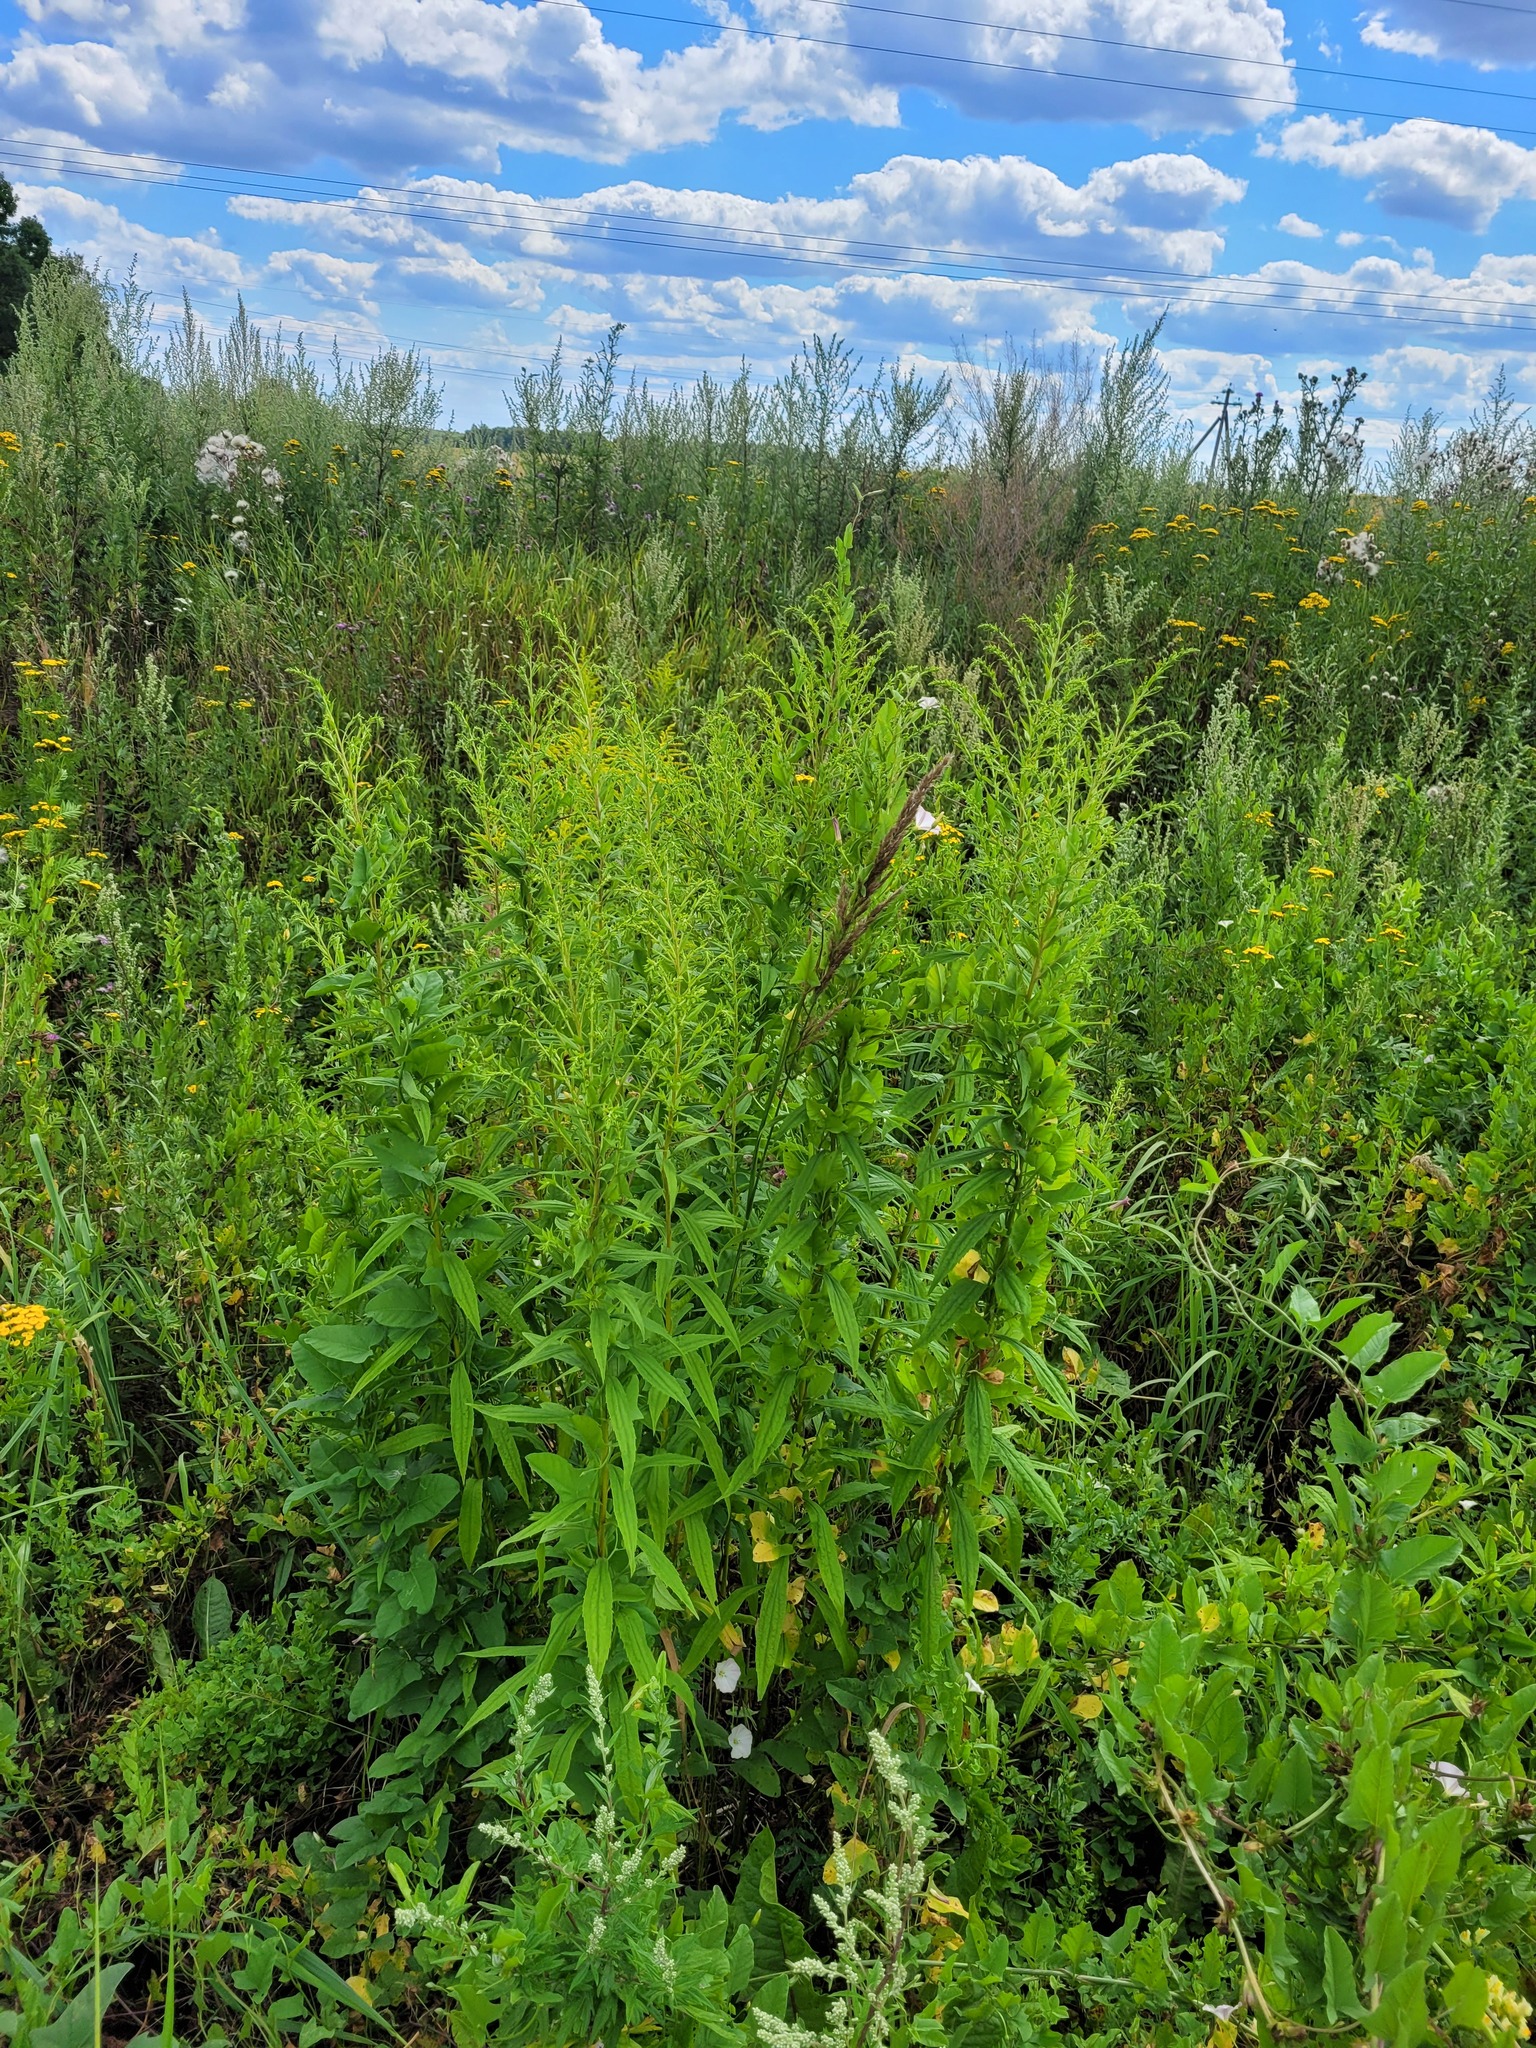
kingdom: Plantae
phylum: Tracheophyta
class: Magnoliopsida
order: Asterales
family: Asteraceae
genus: Solidago
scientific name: Solidago canadensis
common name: Canada goldenrod
